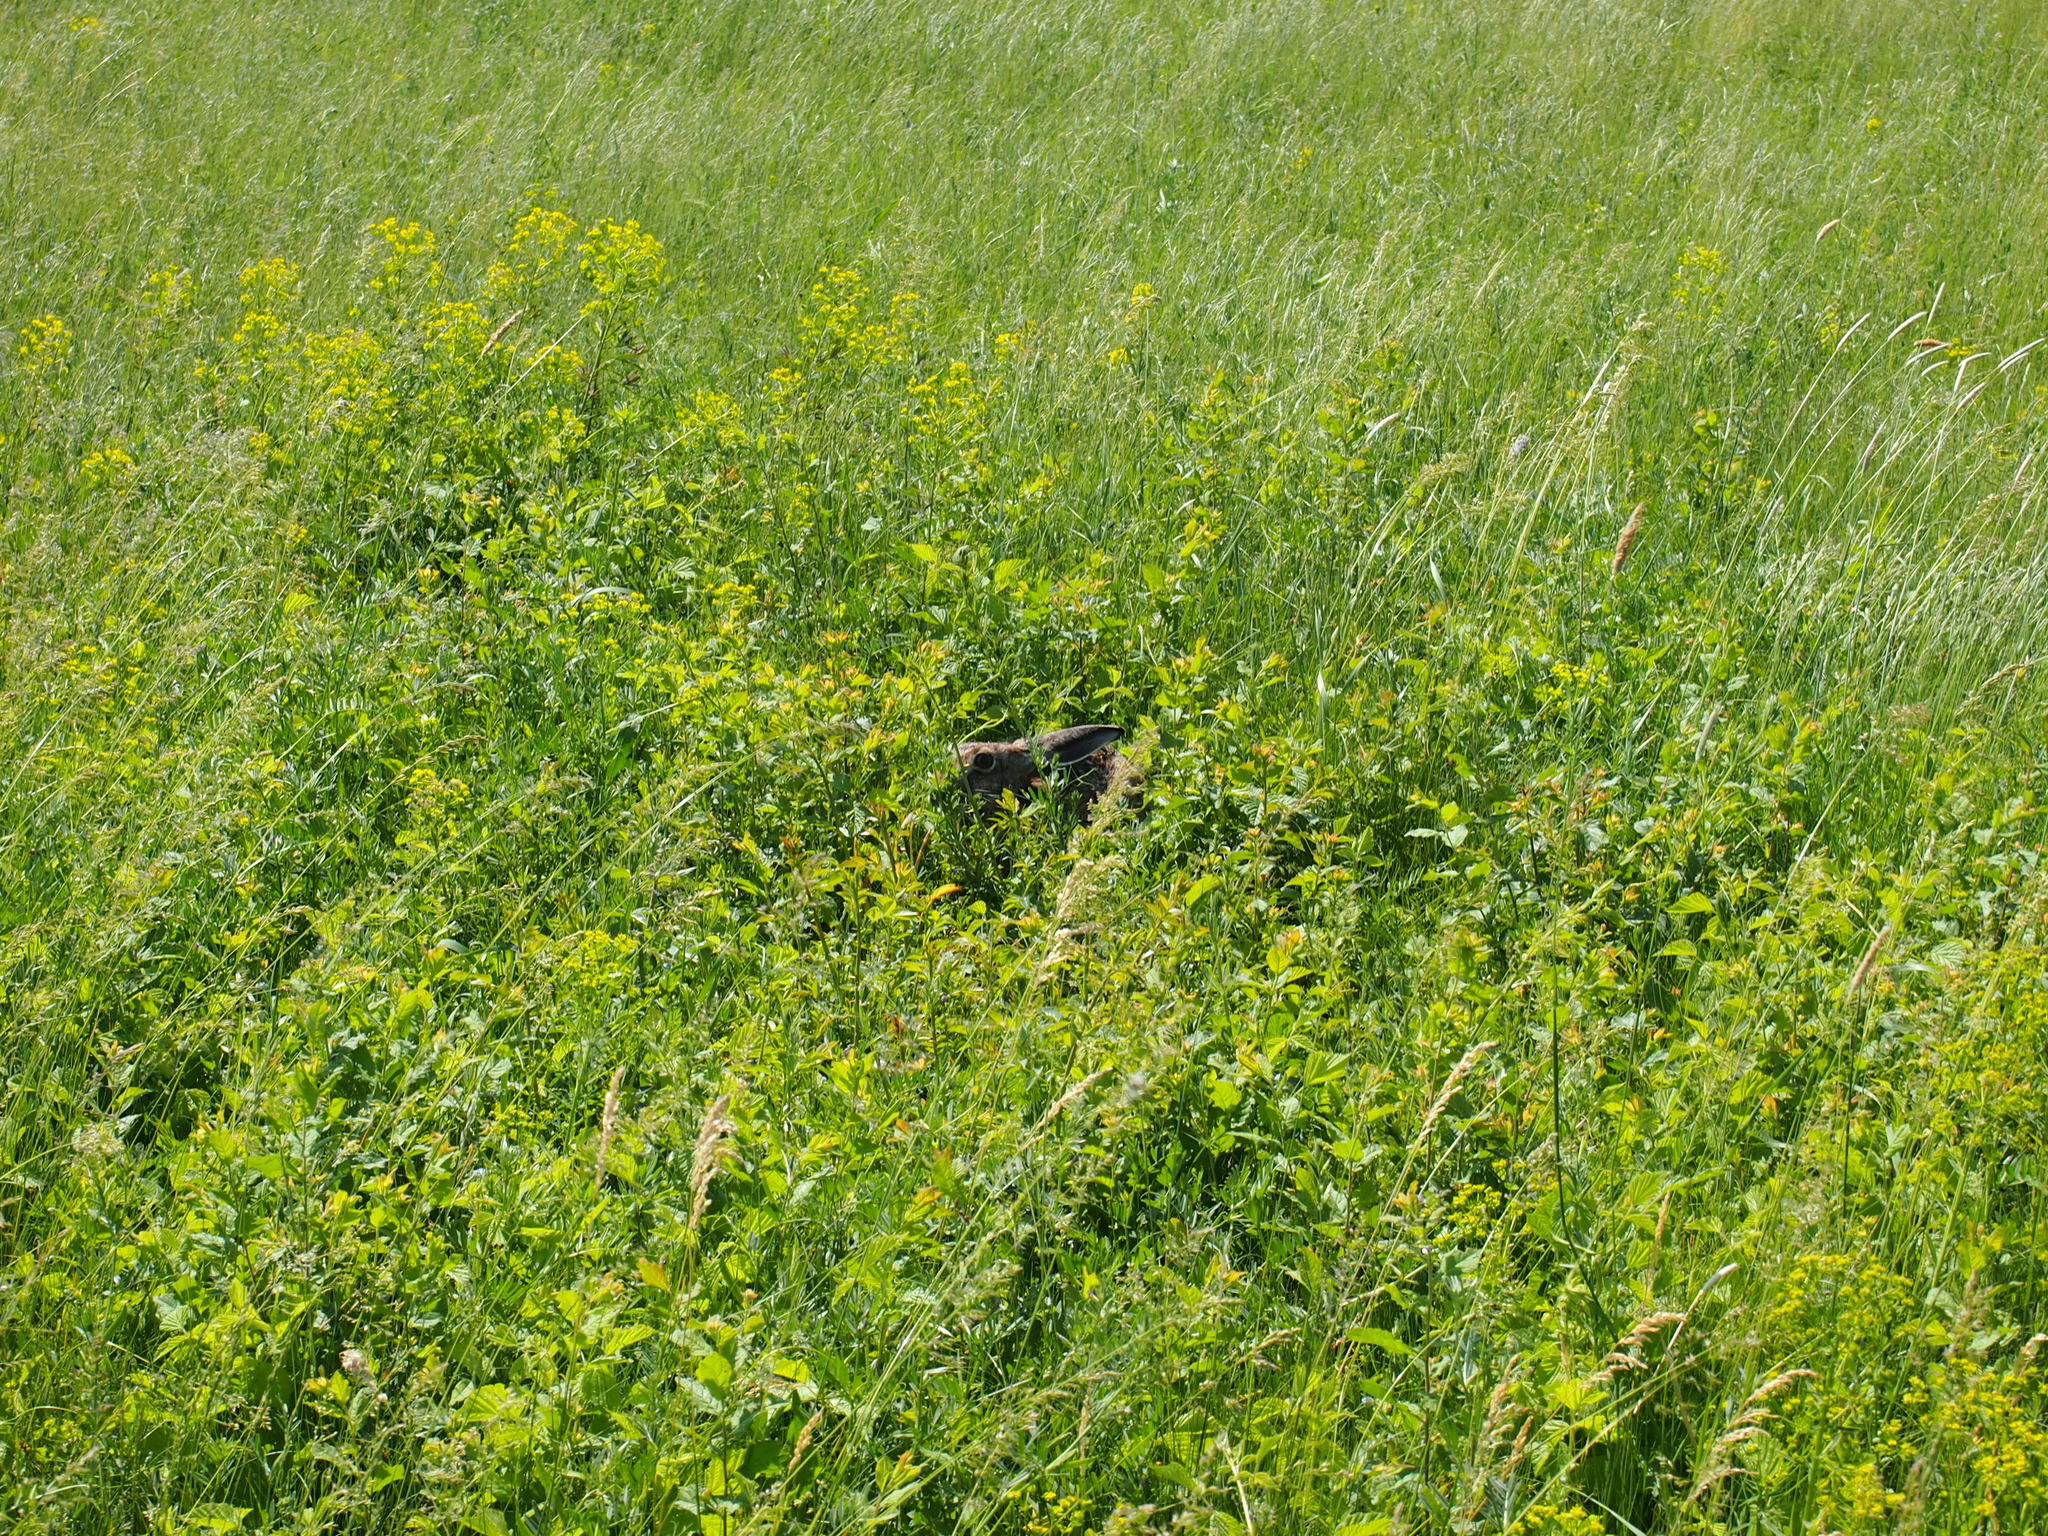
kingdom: Animalia
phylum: Chordata
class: Mammalia
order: Lagomorpha
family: Leporidae
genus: Lepus
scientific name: Lepus europaeus
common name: European hare
